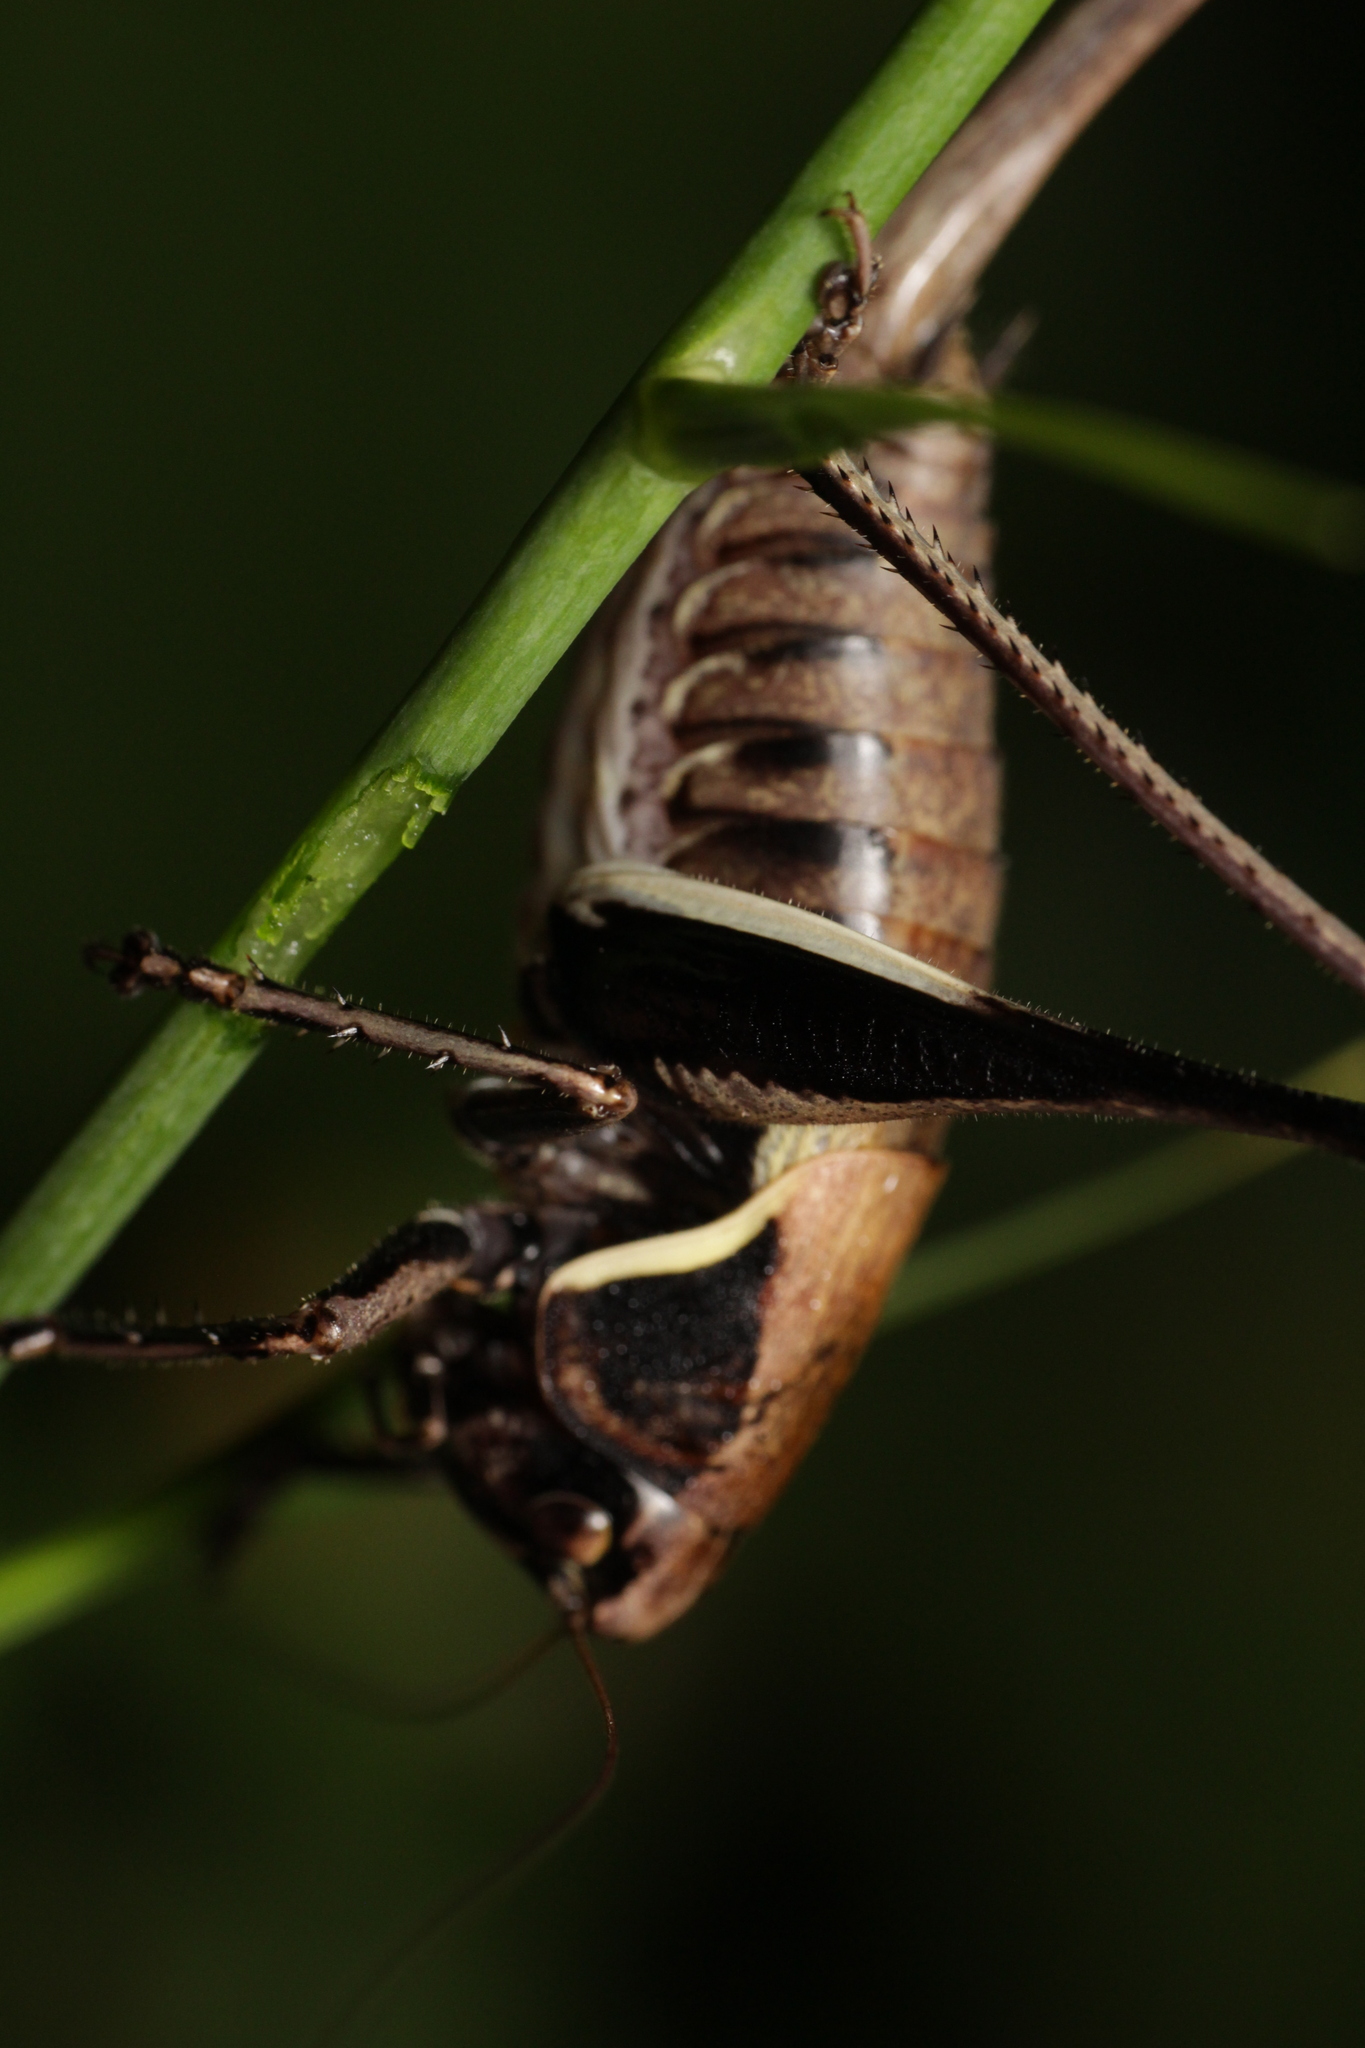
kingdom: Animalia
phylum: Arthropoda
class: Insecta
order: Orthoptera
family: Tettigoniidae
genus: Pholidoptera
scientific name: Pholidoptera aptera
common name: Alpine dark bush-cricket
